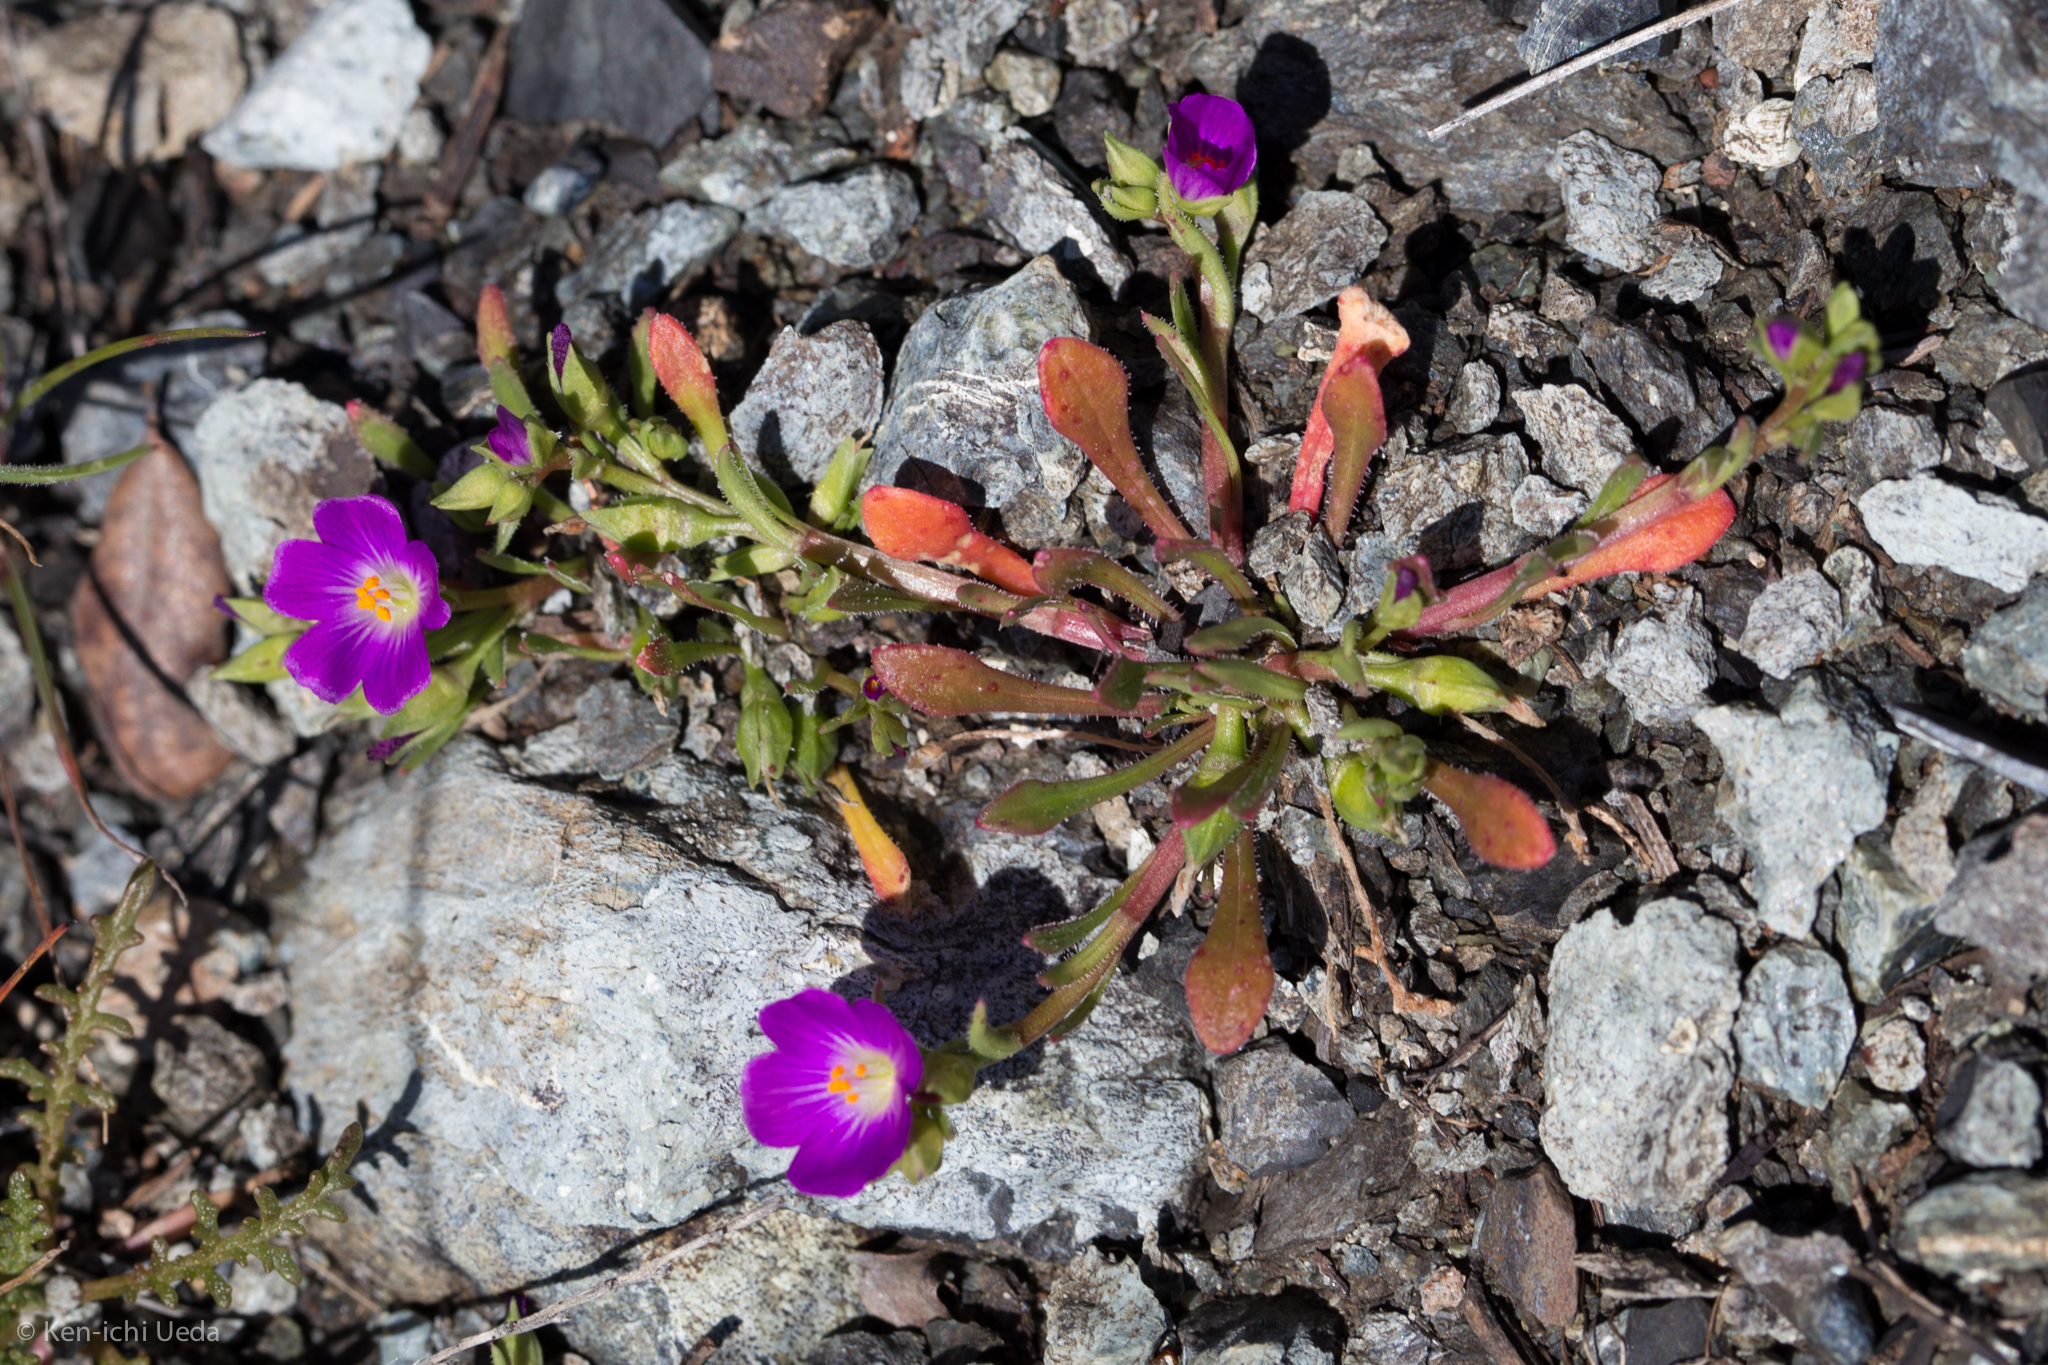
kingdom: Plantae
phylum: Tracheophyta
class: Magnoliopsida
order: Caryophyllales
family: Montiaceae
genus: Calandrinia
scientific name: Calandrinia menziesii
